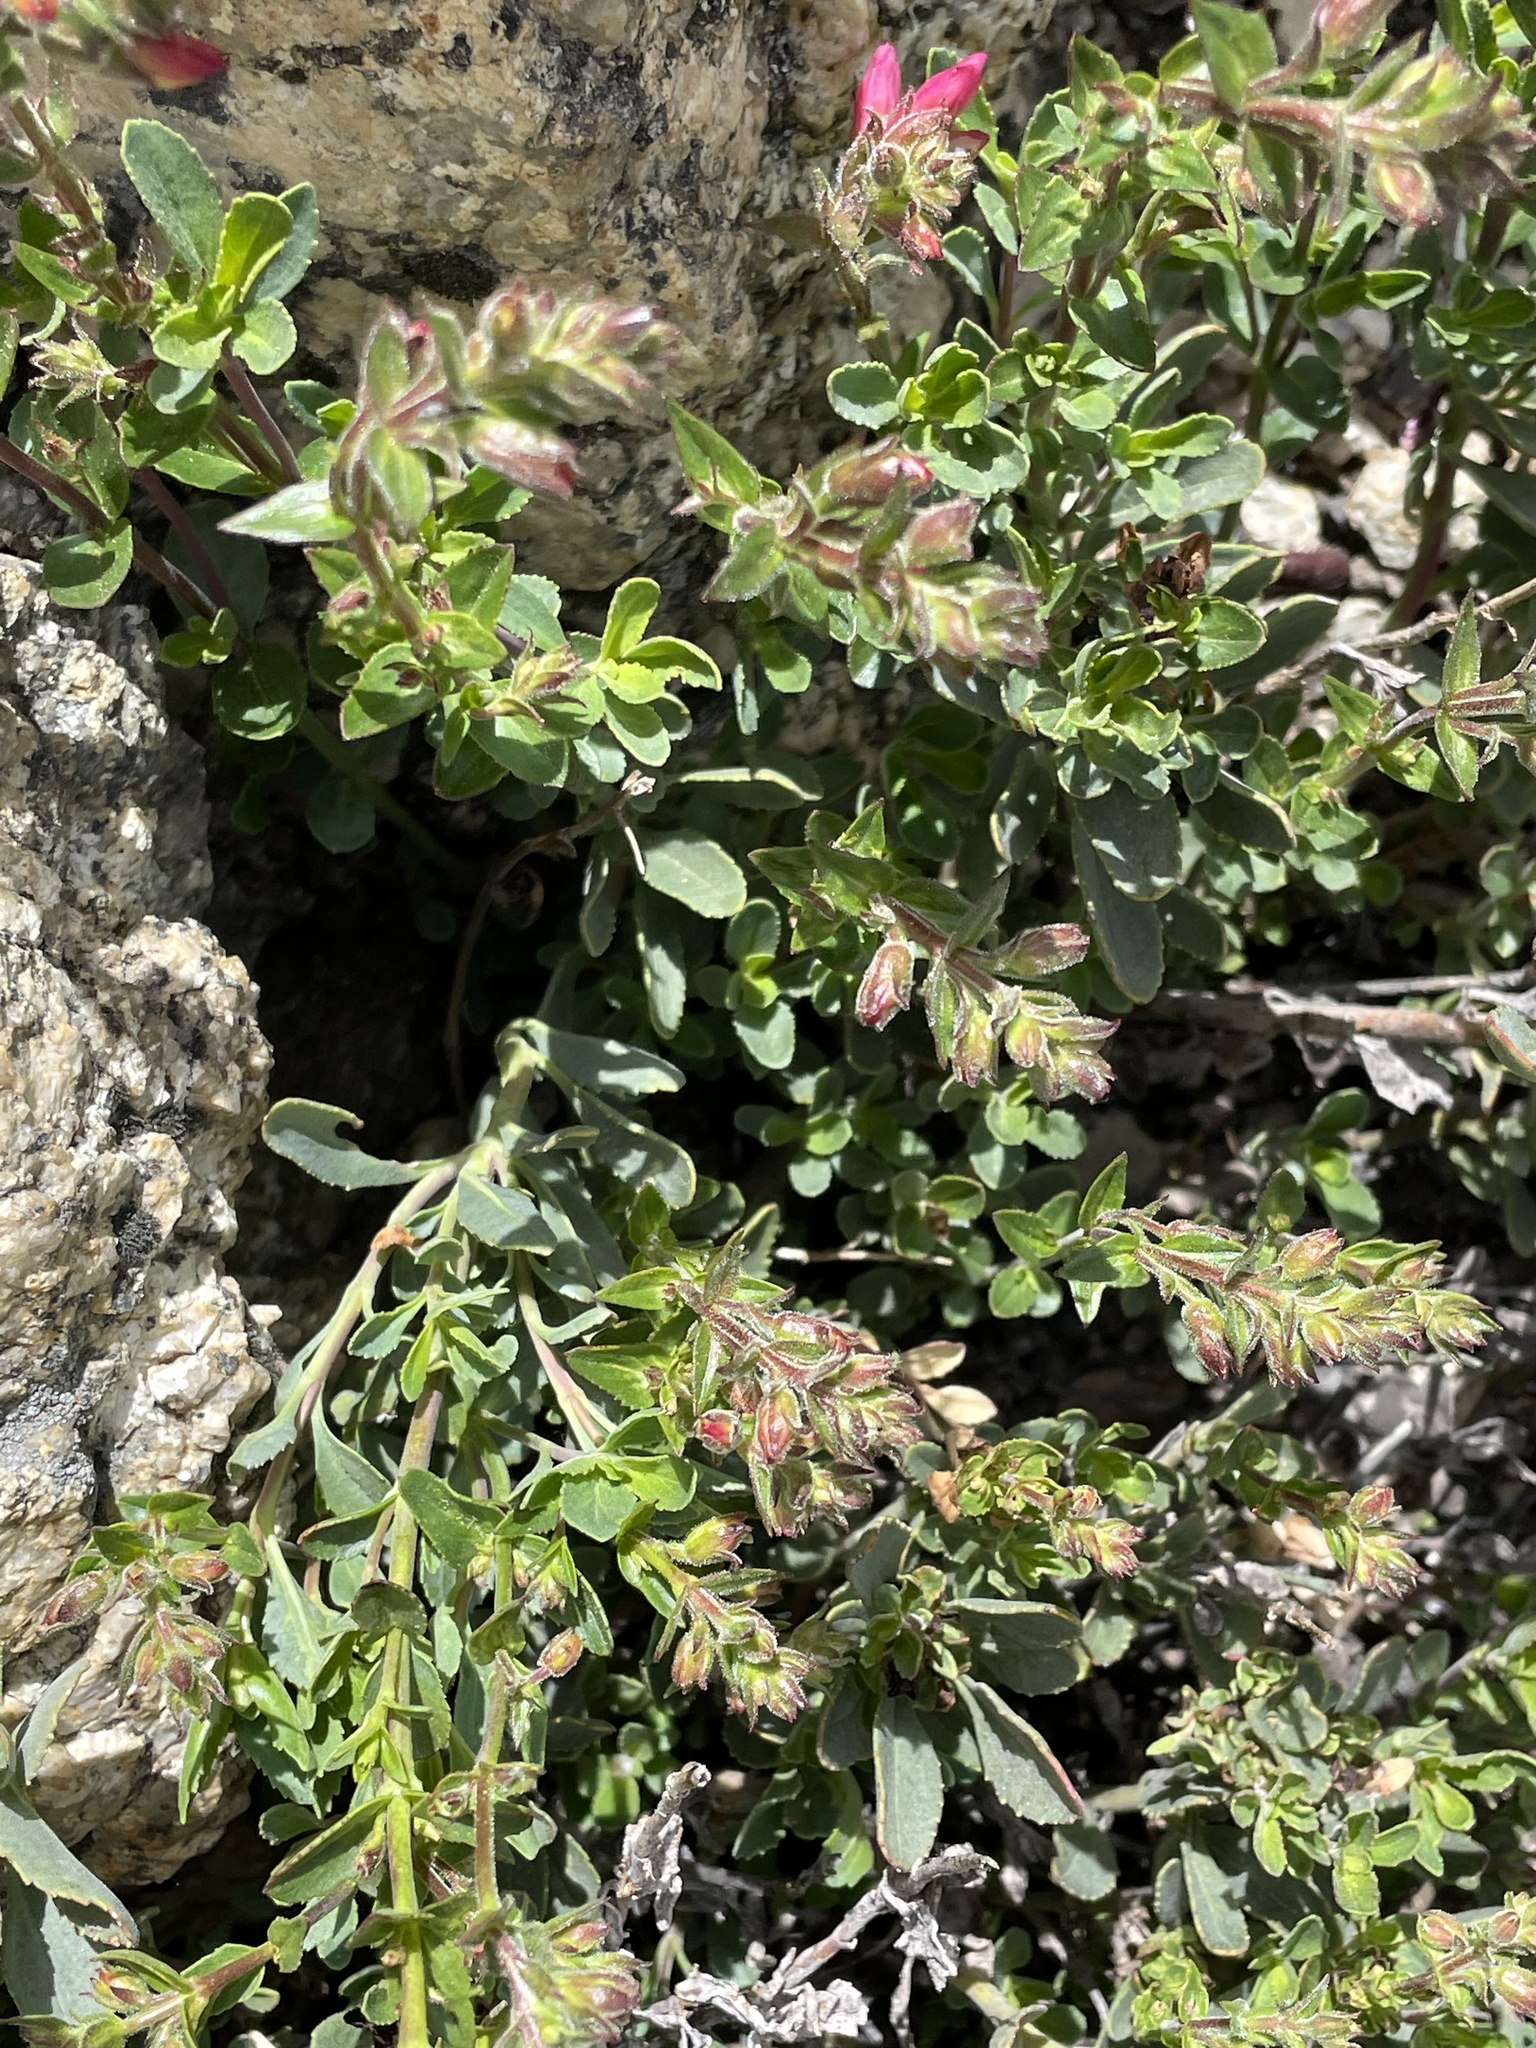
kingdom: Plantae
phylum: Tracheophyta
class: Magnoliopsida
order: Lamiales
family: Plantaginaceae
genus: Penstemon
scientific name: Penstemon newberryi
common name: Mountain-pride
